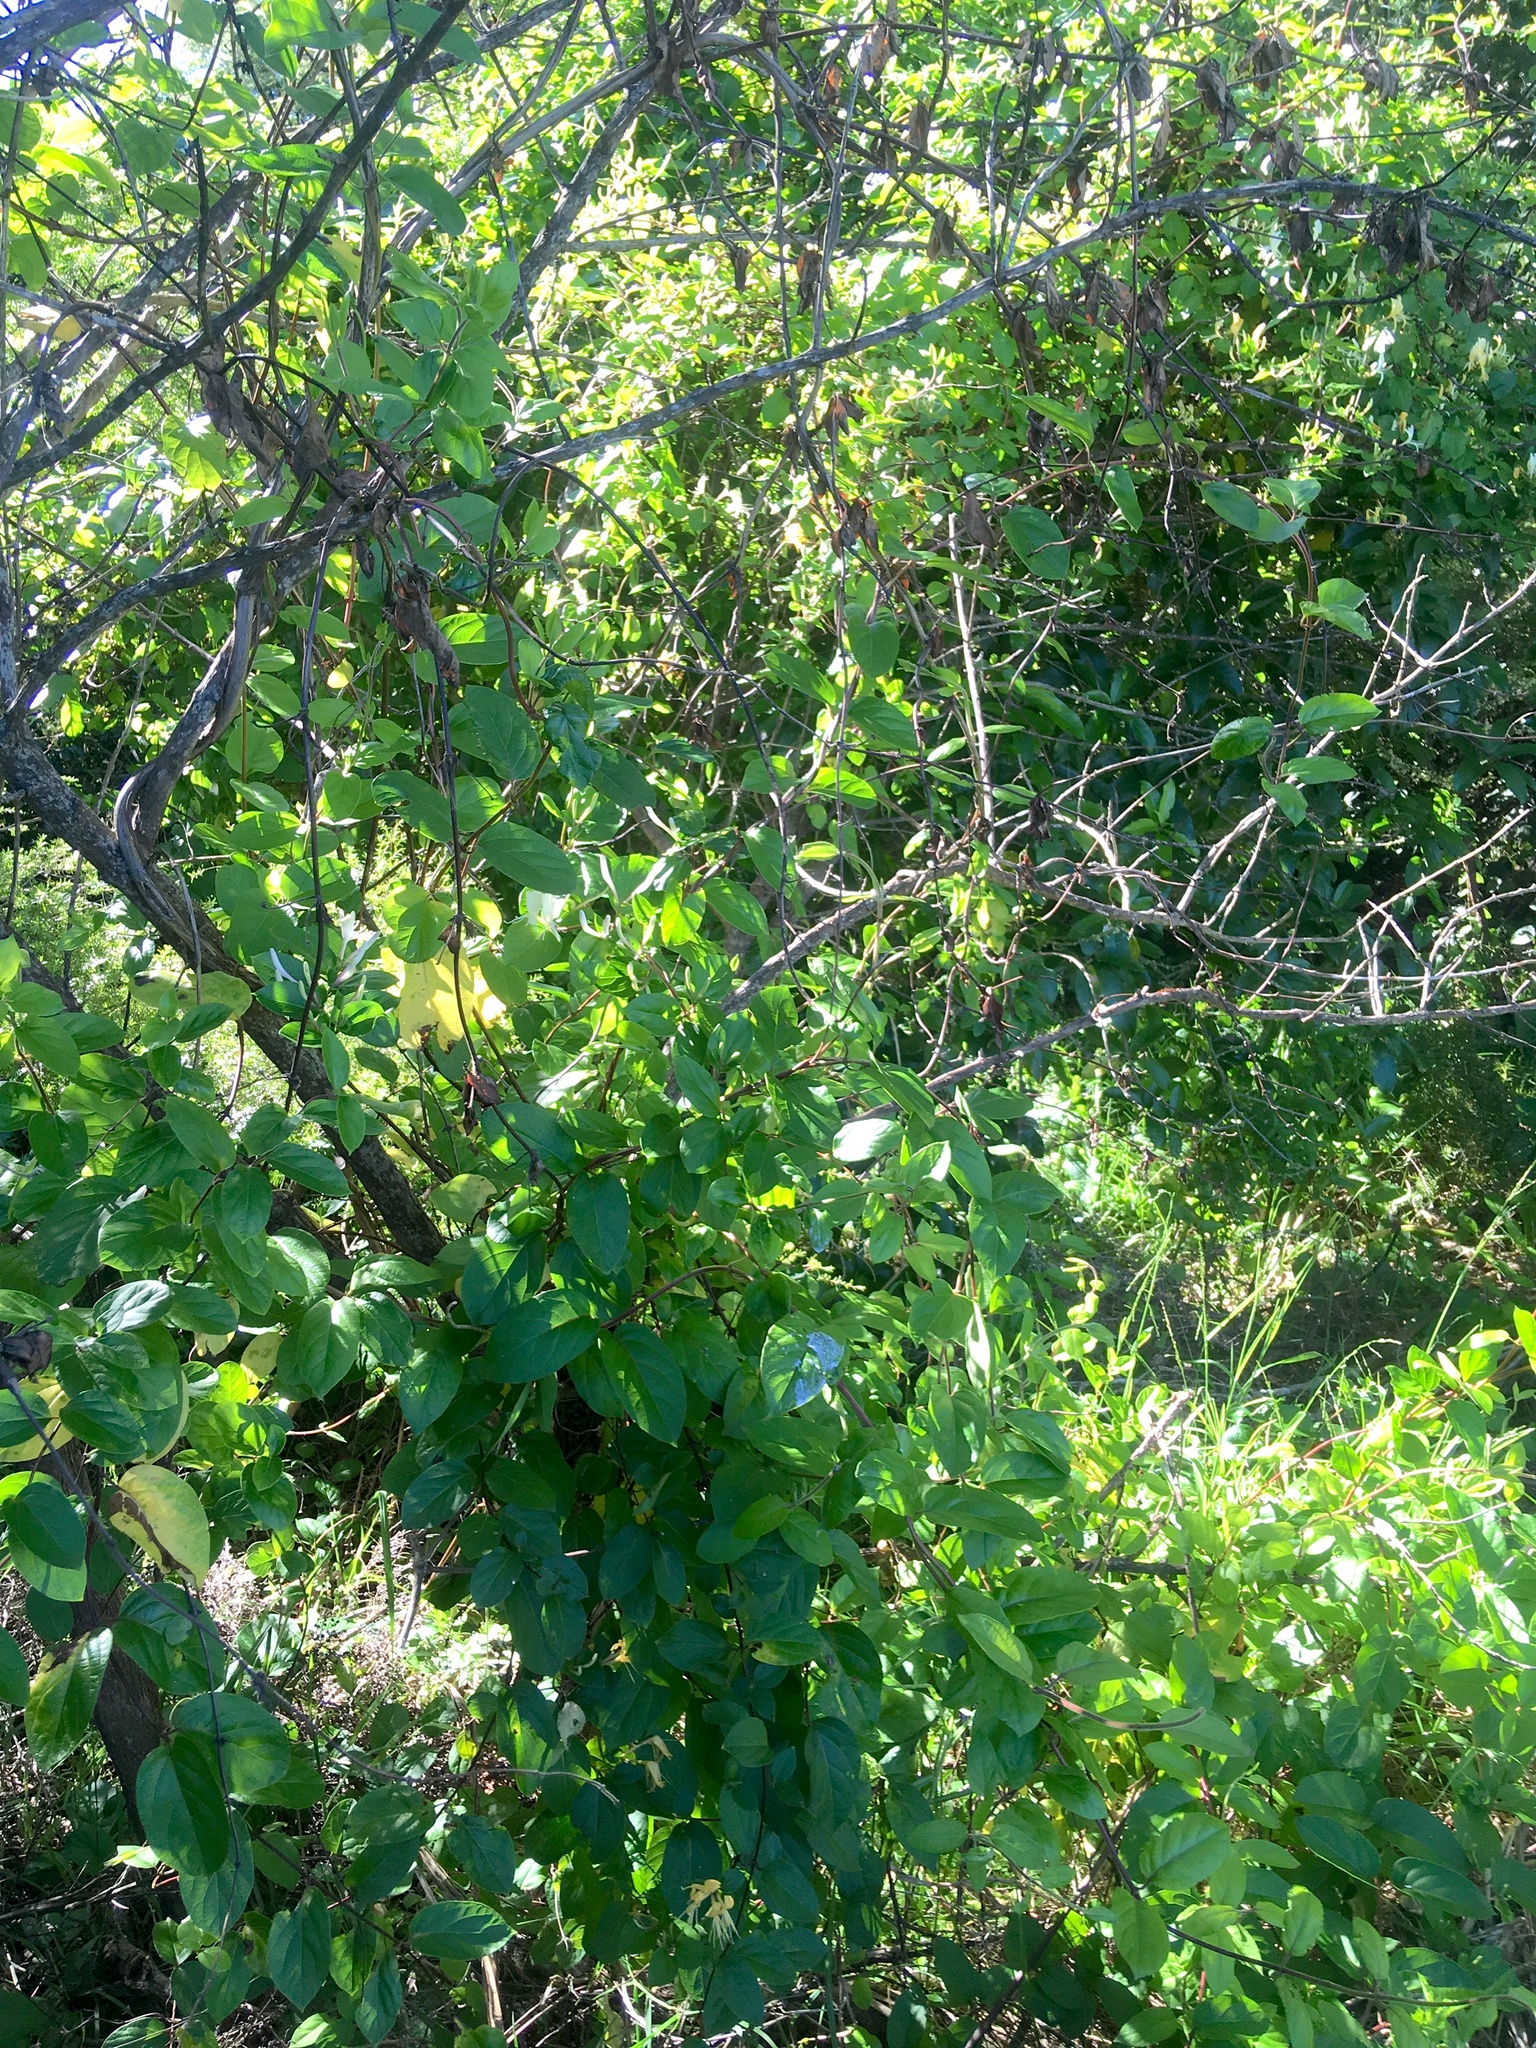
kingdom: Plantae
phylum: Tracheophyta
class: Magnoliopsida
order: Gentianales
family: Rubiaceae
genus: Coprosma
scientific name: Coprosma robusta
